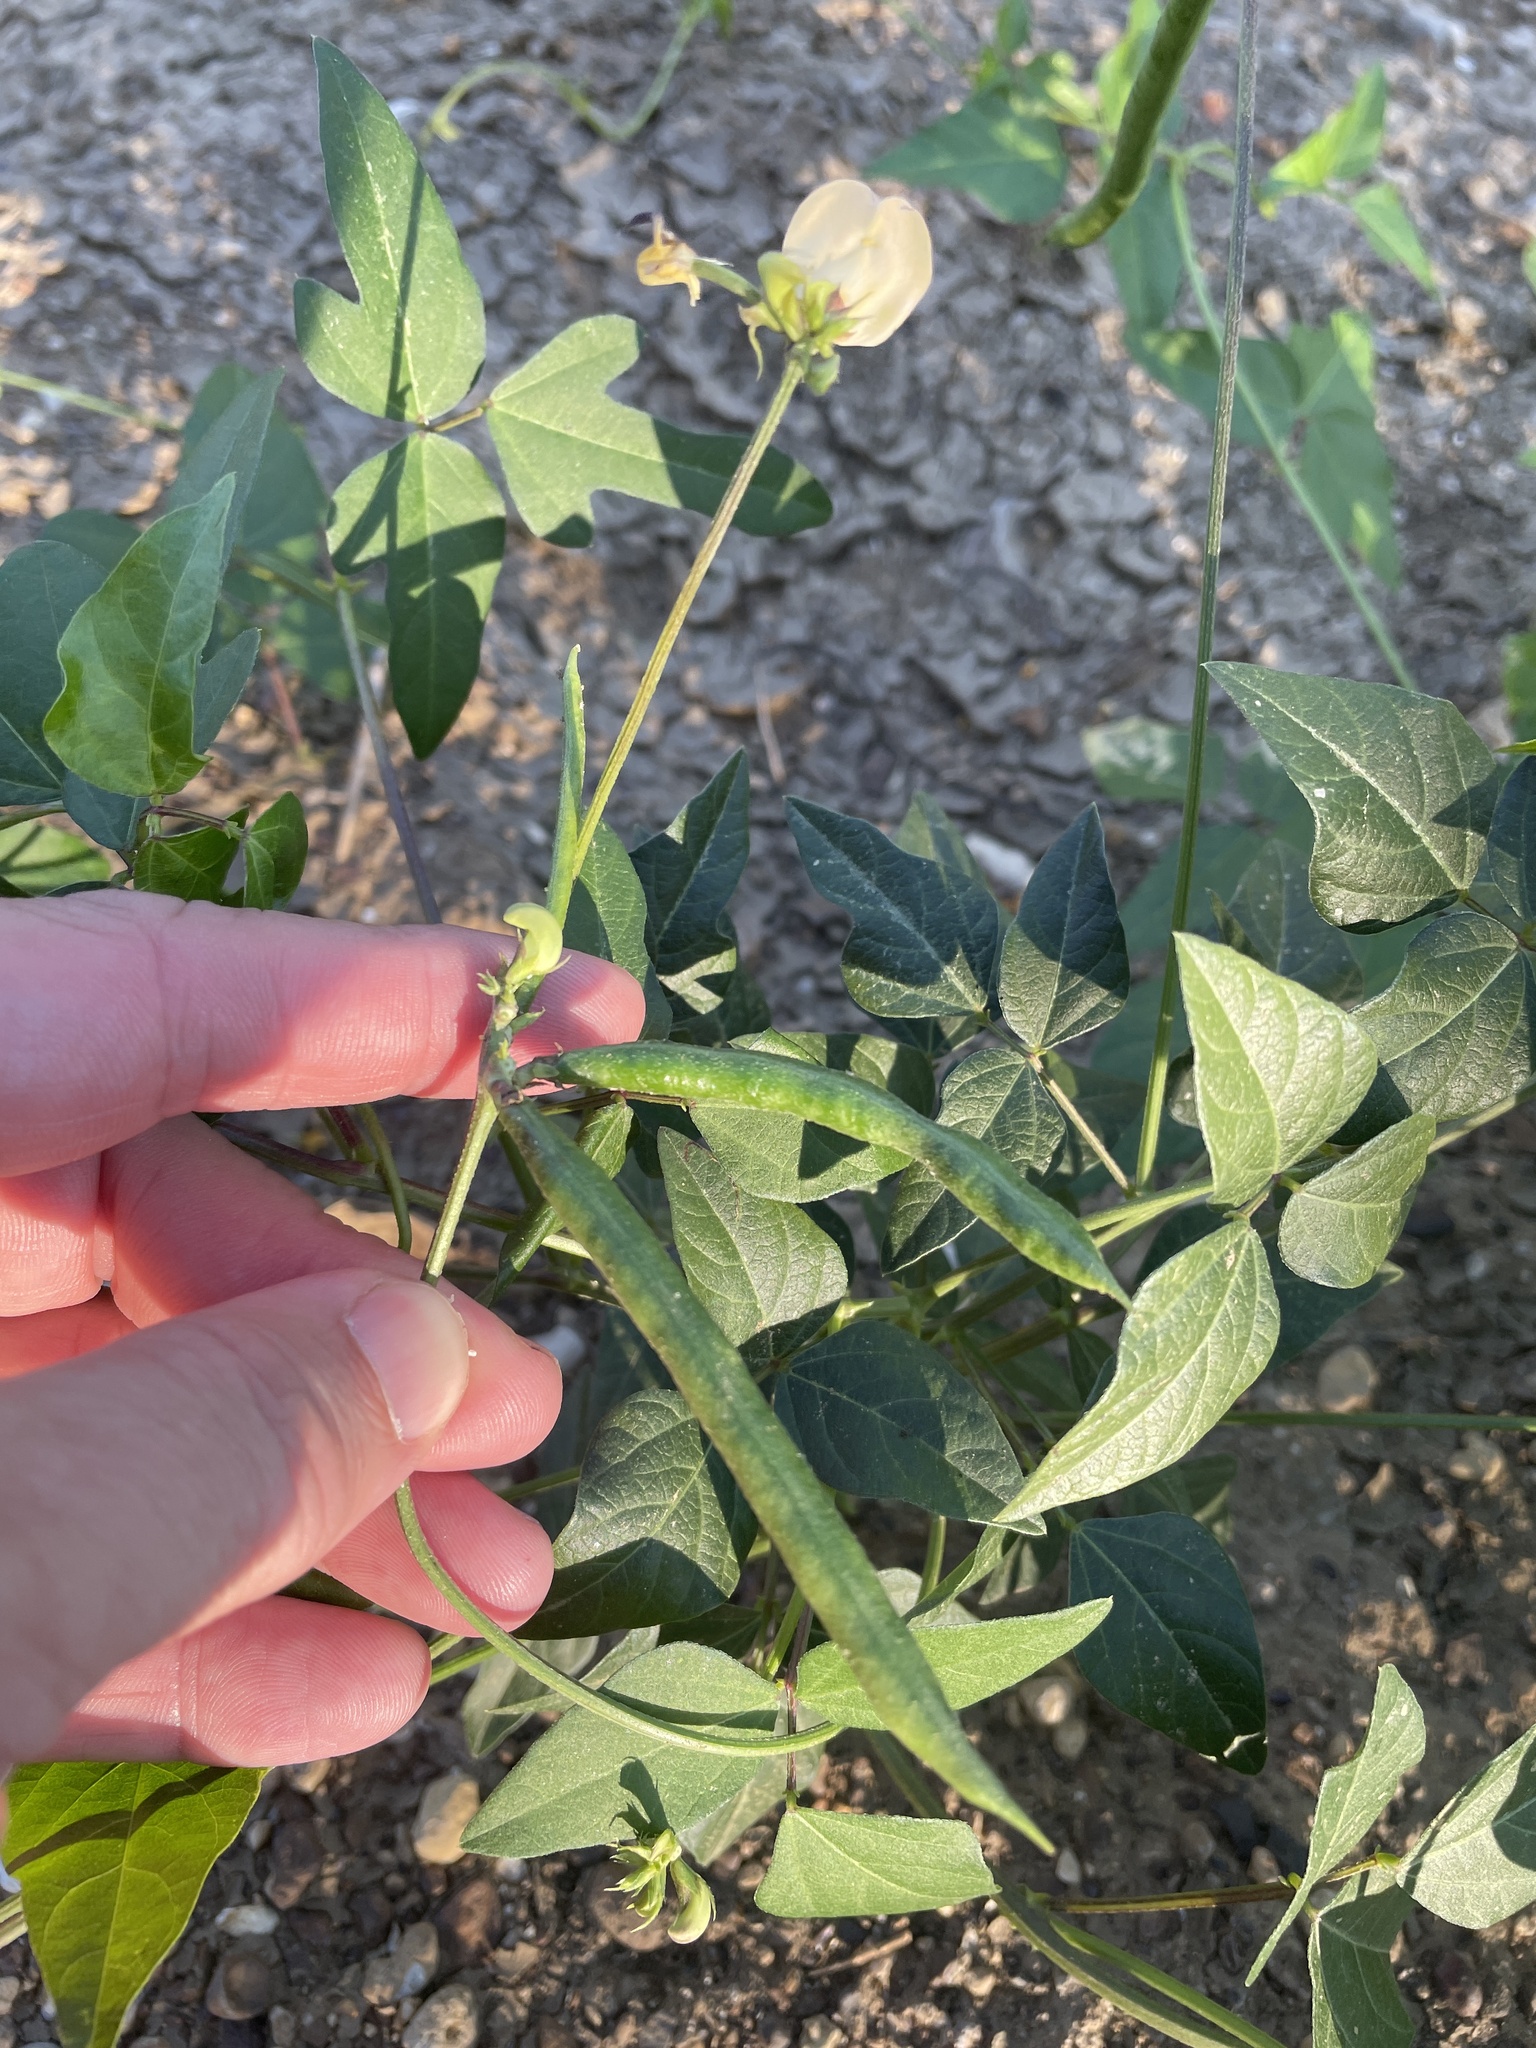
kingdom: Plantae
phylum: Tracheophyta
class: Magnoliopsida
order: Fabales
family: Fabaceae
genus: Strophostyles
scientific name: Strophostyles helvola
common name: Trailing wild bean
